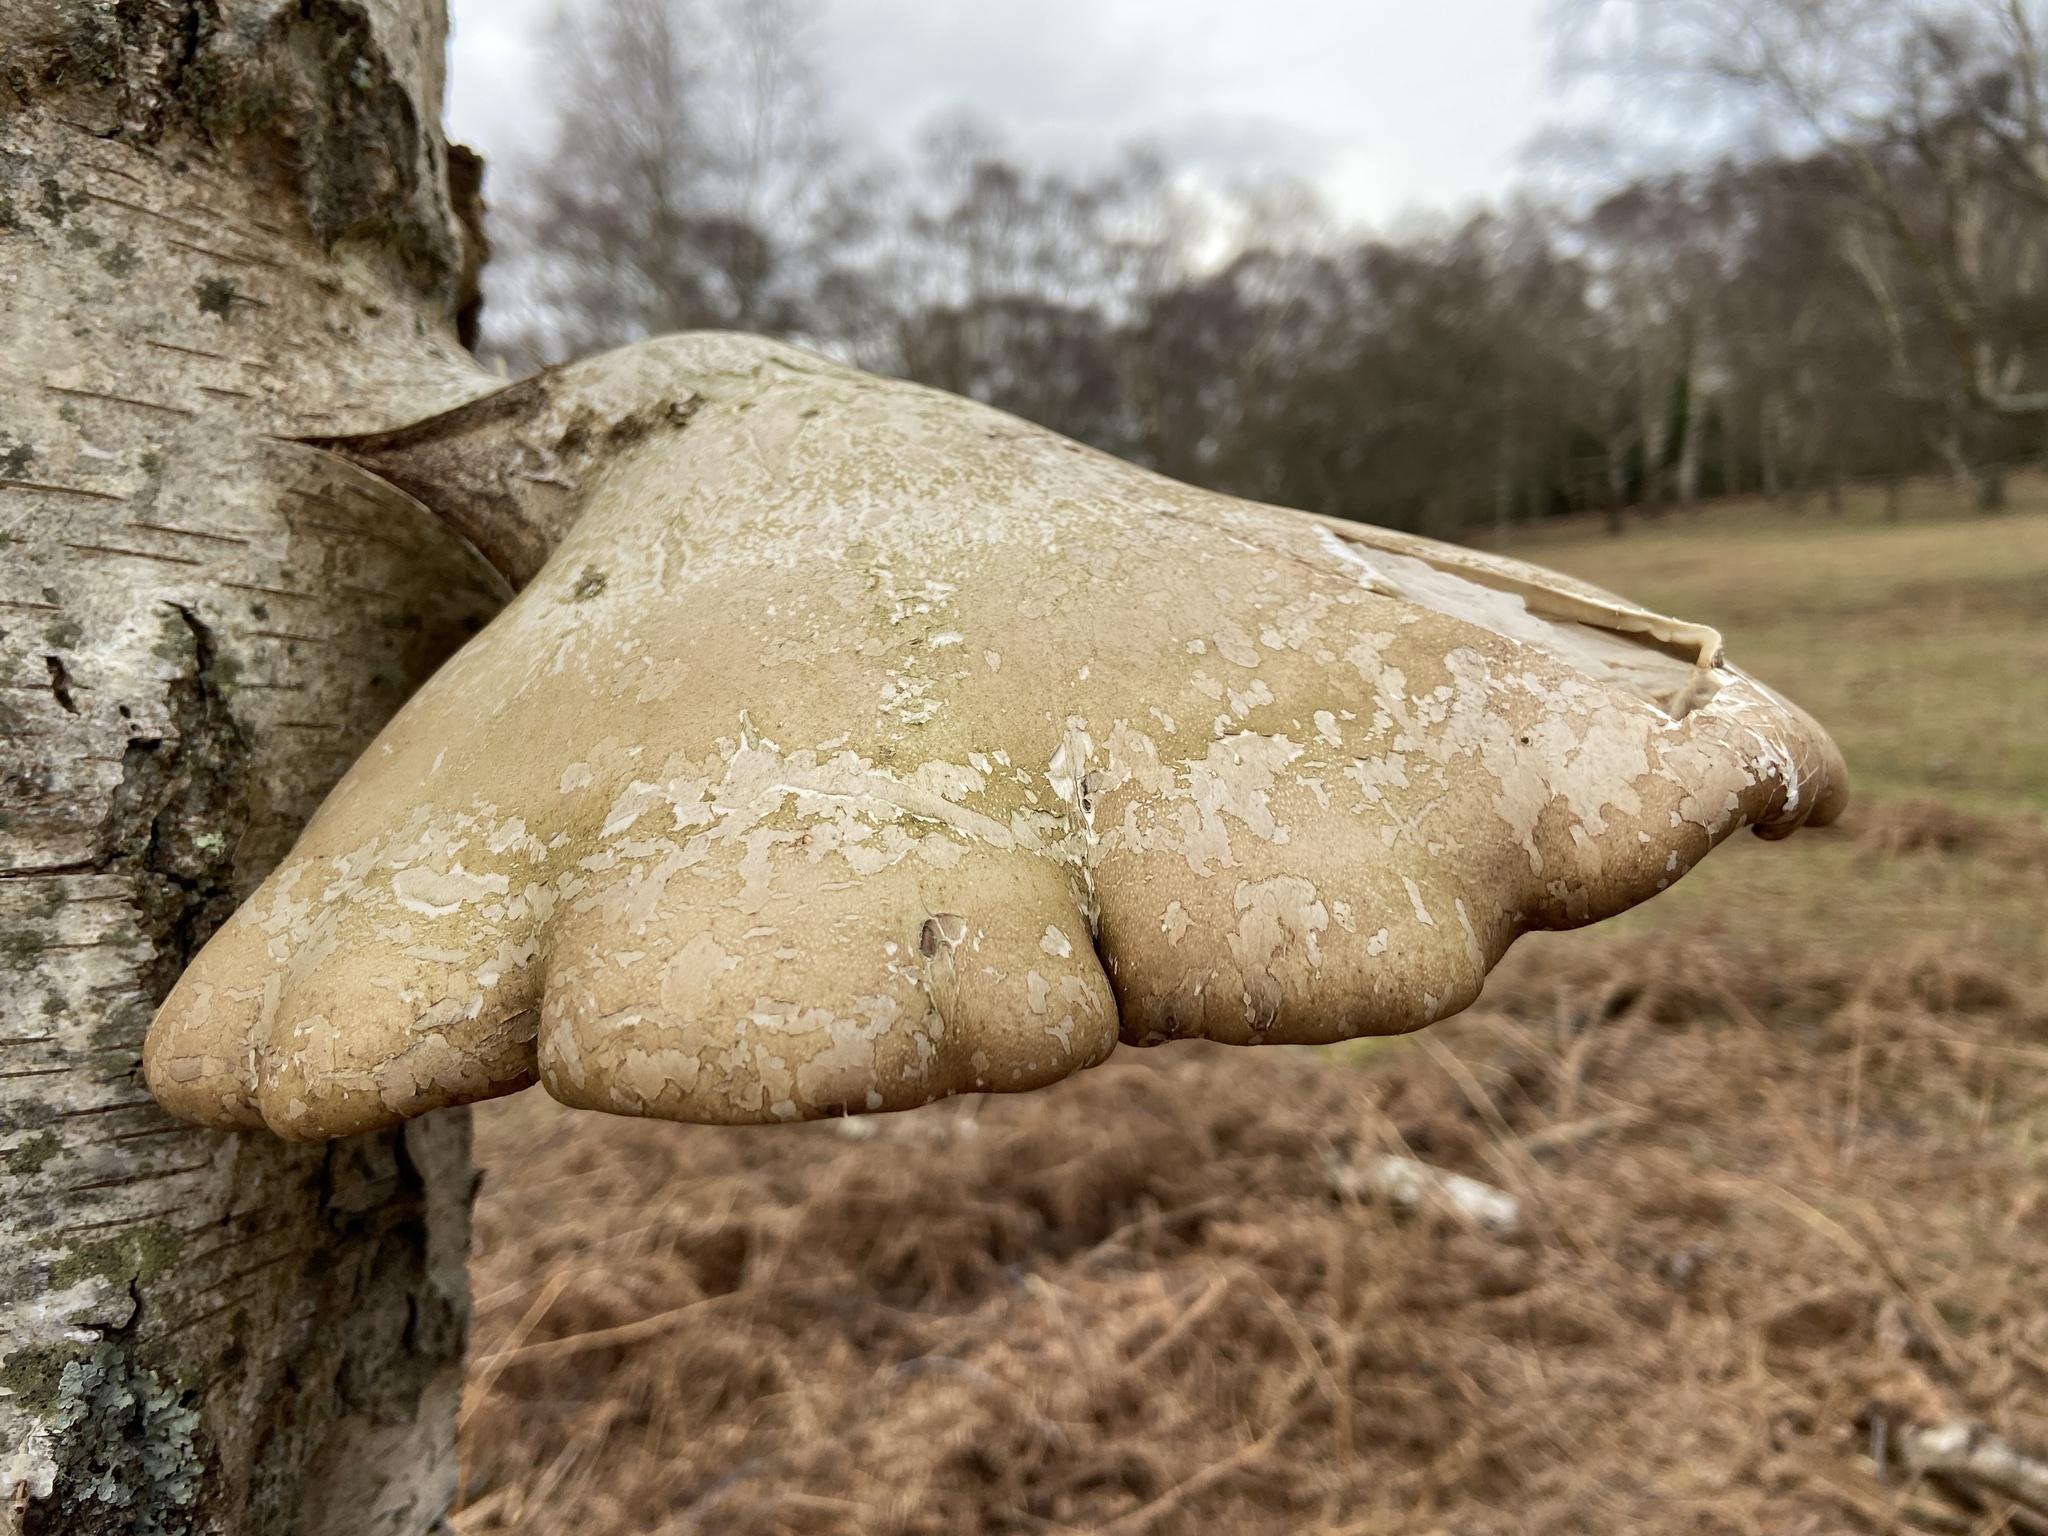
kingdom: Fungi
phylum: Basidiomycota
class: Agaricomycetes
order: Polyporales
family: Fomitopsidaceae
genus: Fomitopsis
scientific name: Fomitopsis betulina
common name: Birch polypore
